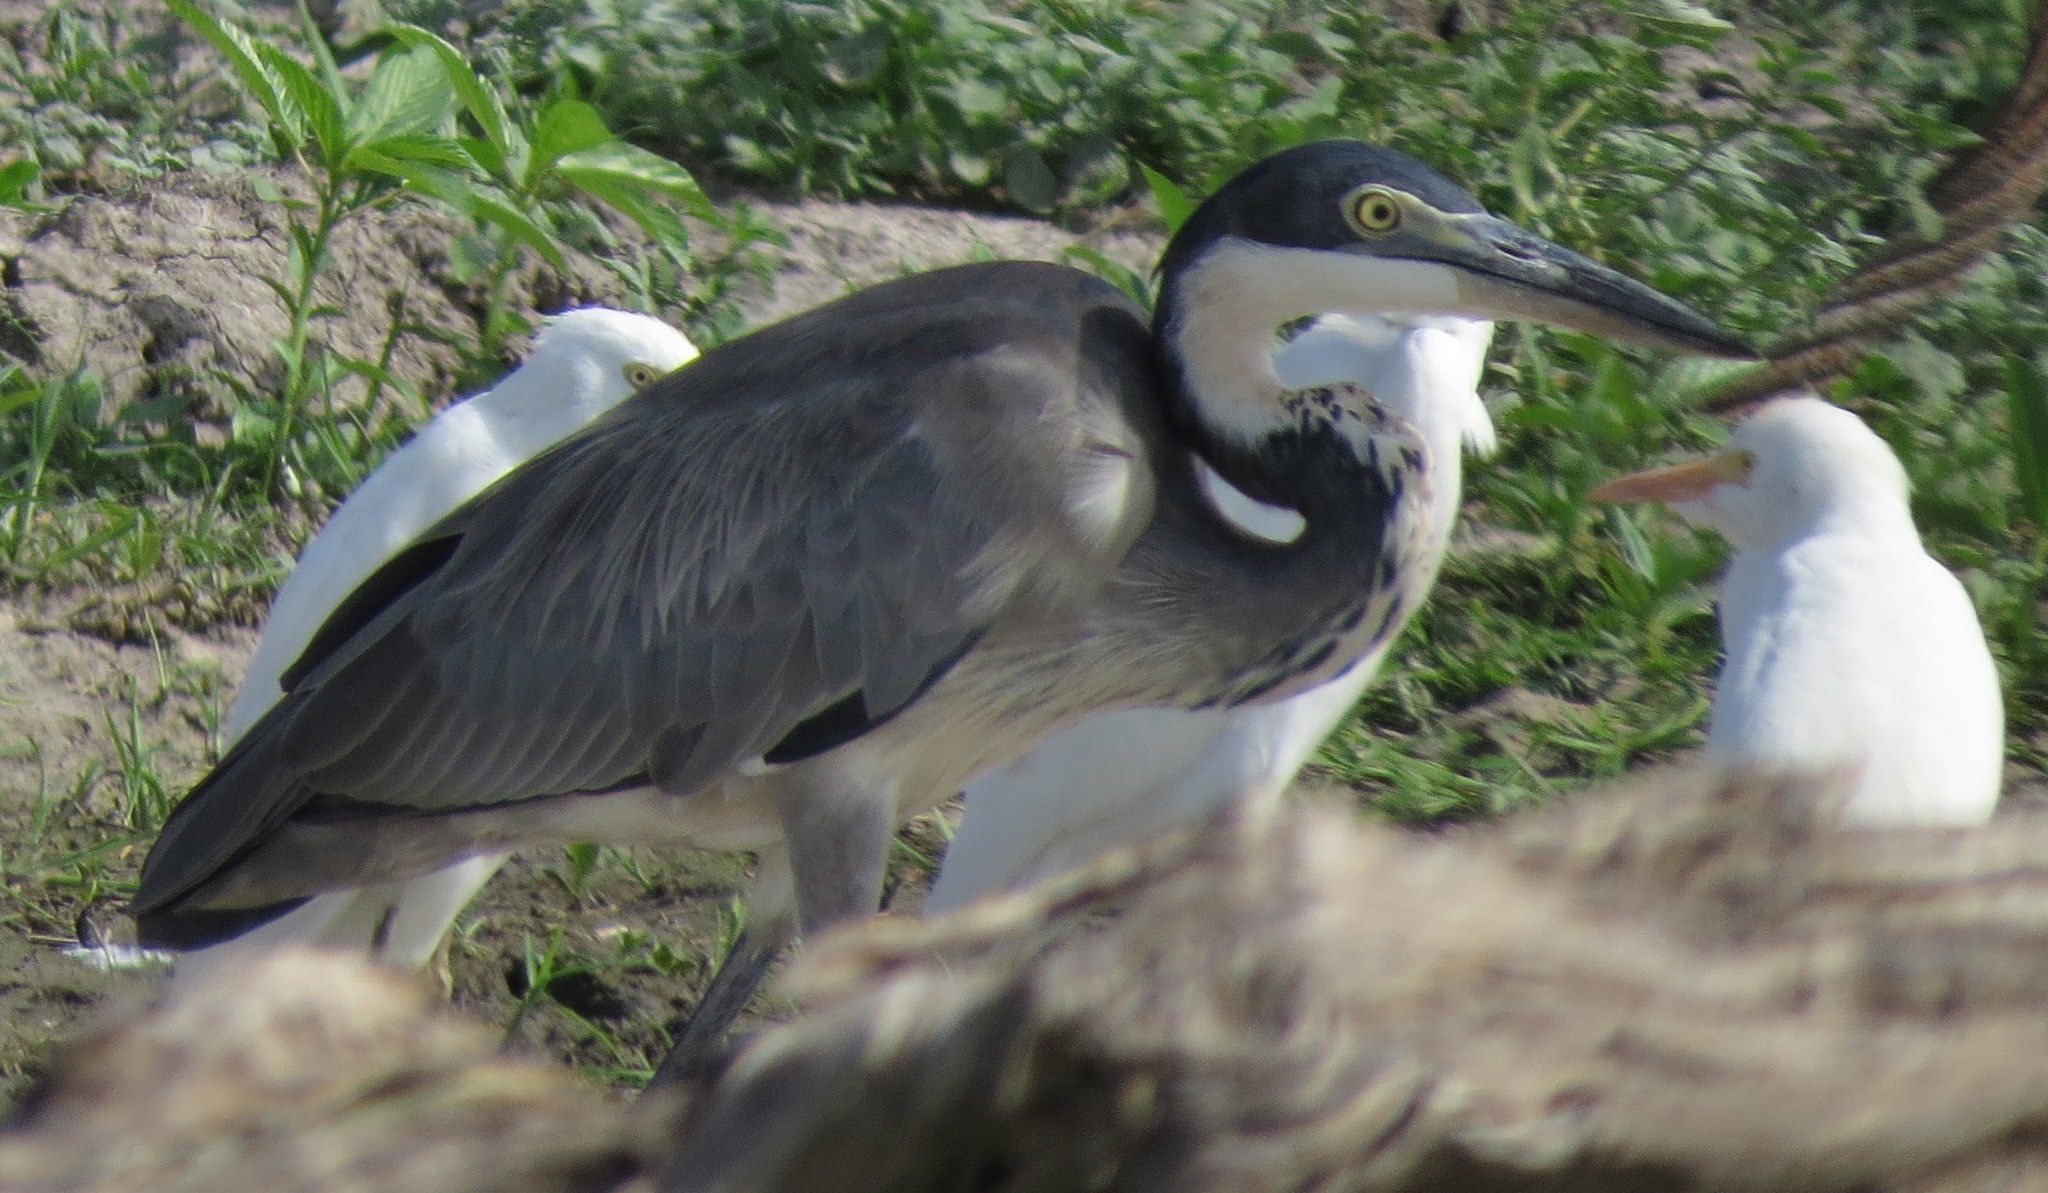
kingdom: Animalia
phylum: Chordata
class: Aves
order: Pelecaniformes
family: Ardeidae
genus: Ardea
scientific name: Ardea melanocephala
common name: Black-headed heron
